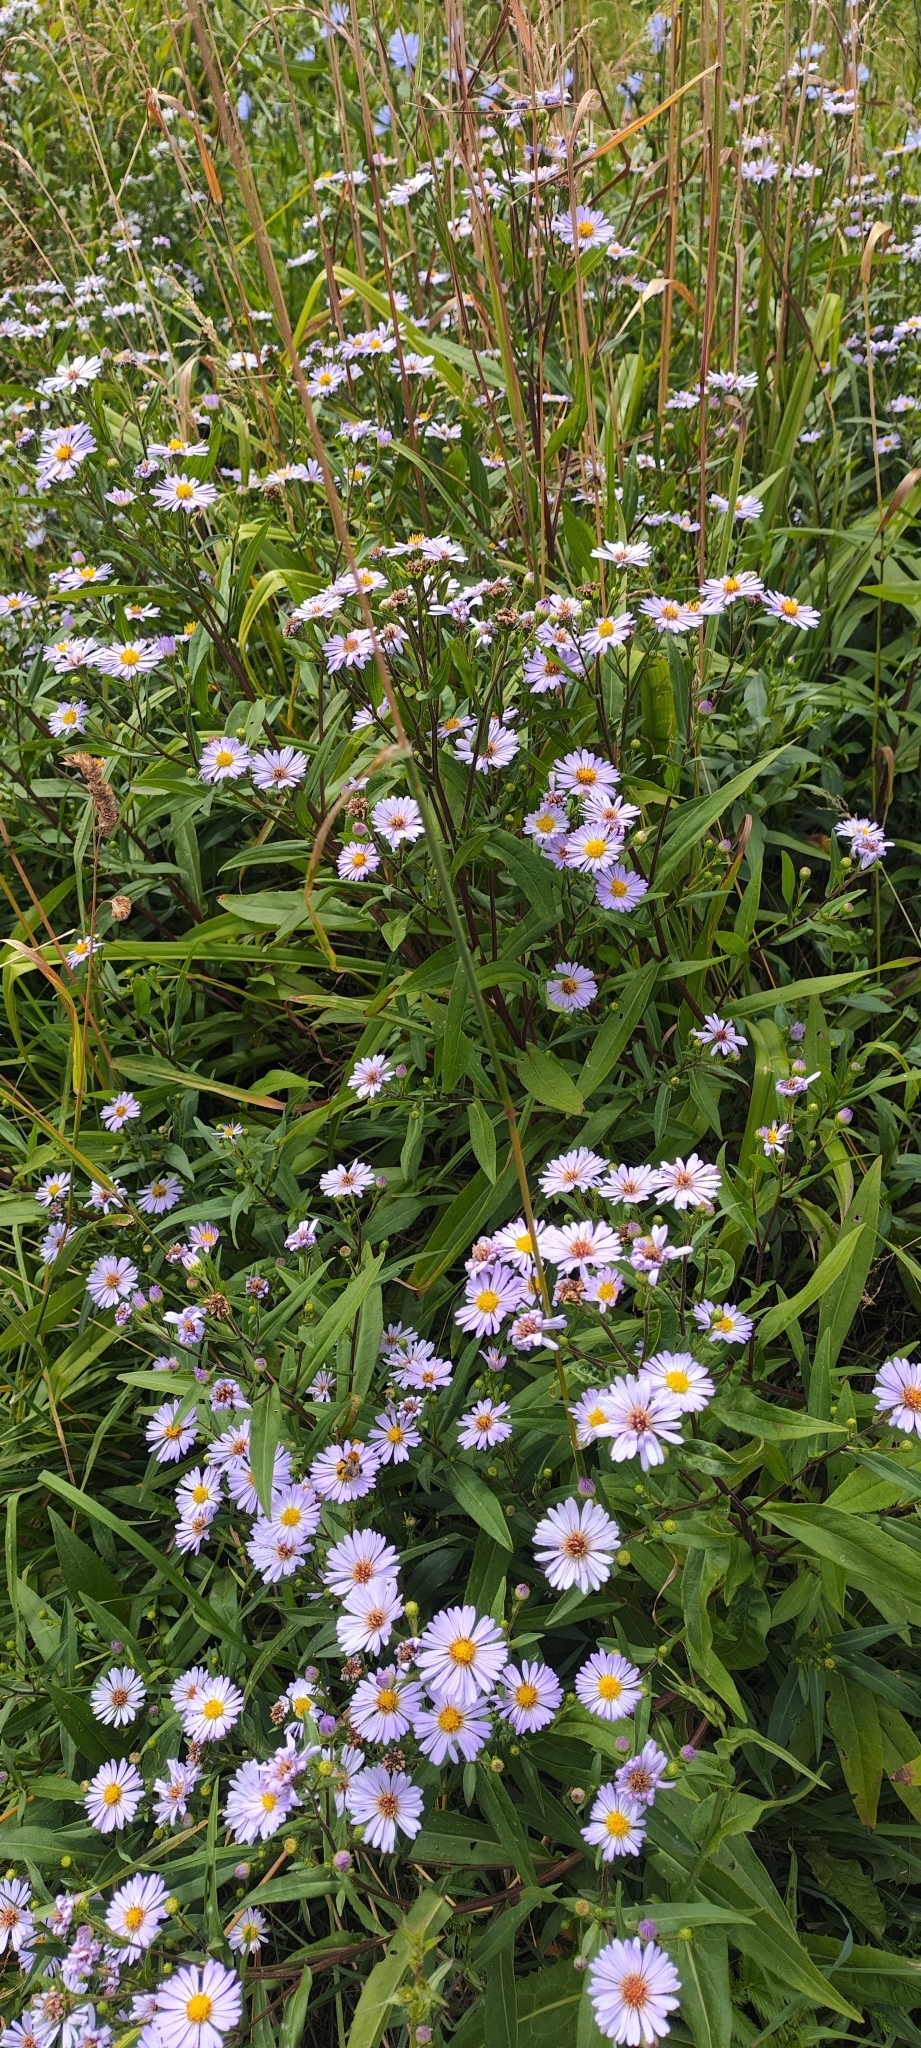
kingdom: Plantae
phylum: Tracheophyta
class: Magnoliopsida
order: Asterales
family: Asteraceae
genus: Symphyotrichum
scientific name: Symphyotrichum novi-belgii
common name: Michaelmas daisy
